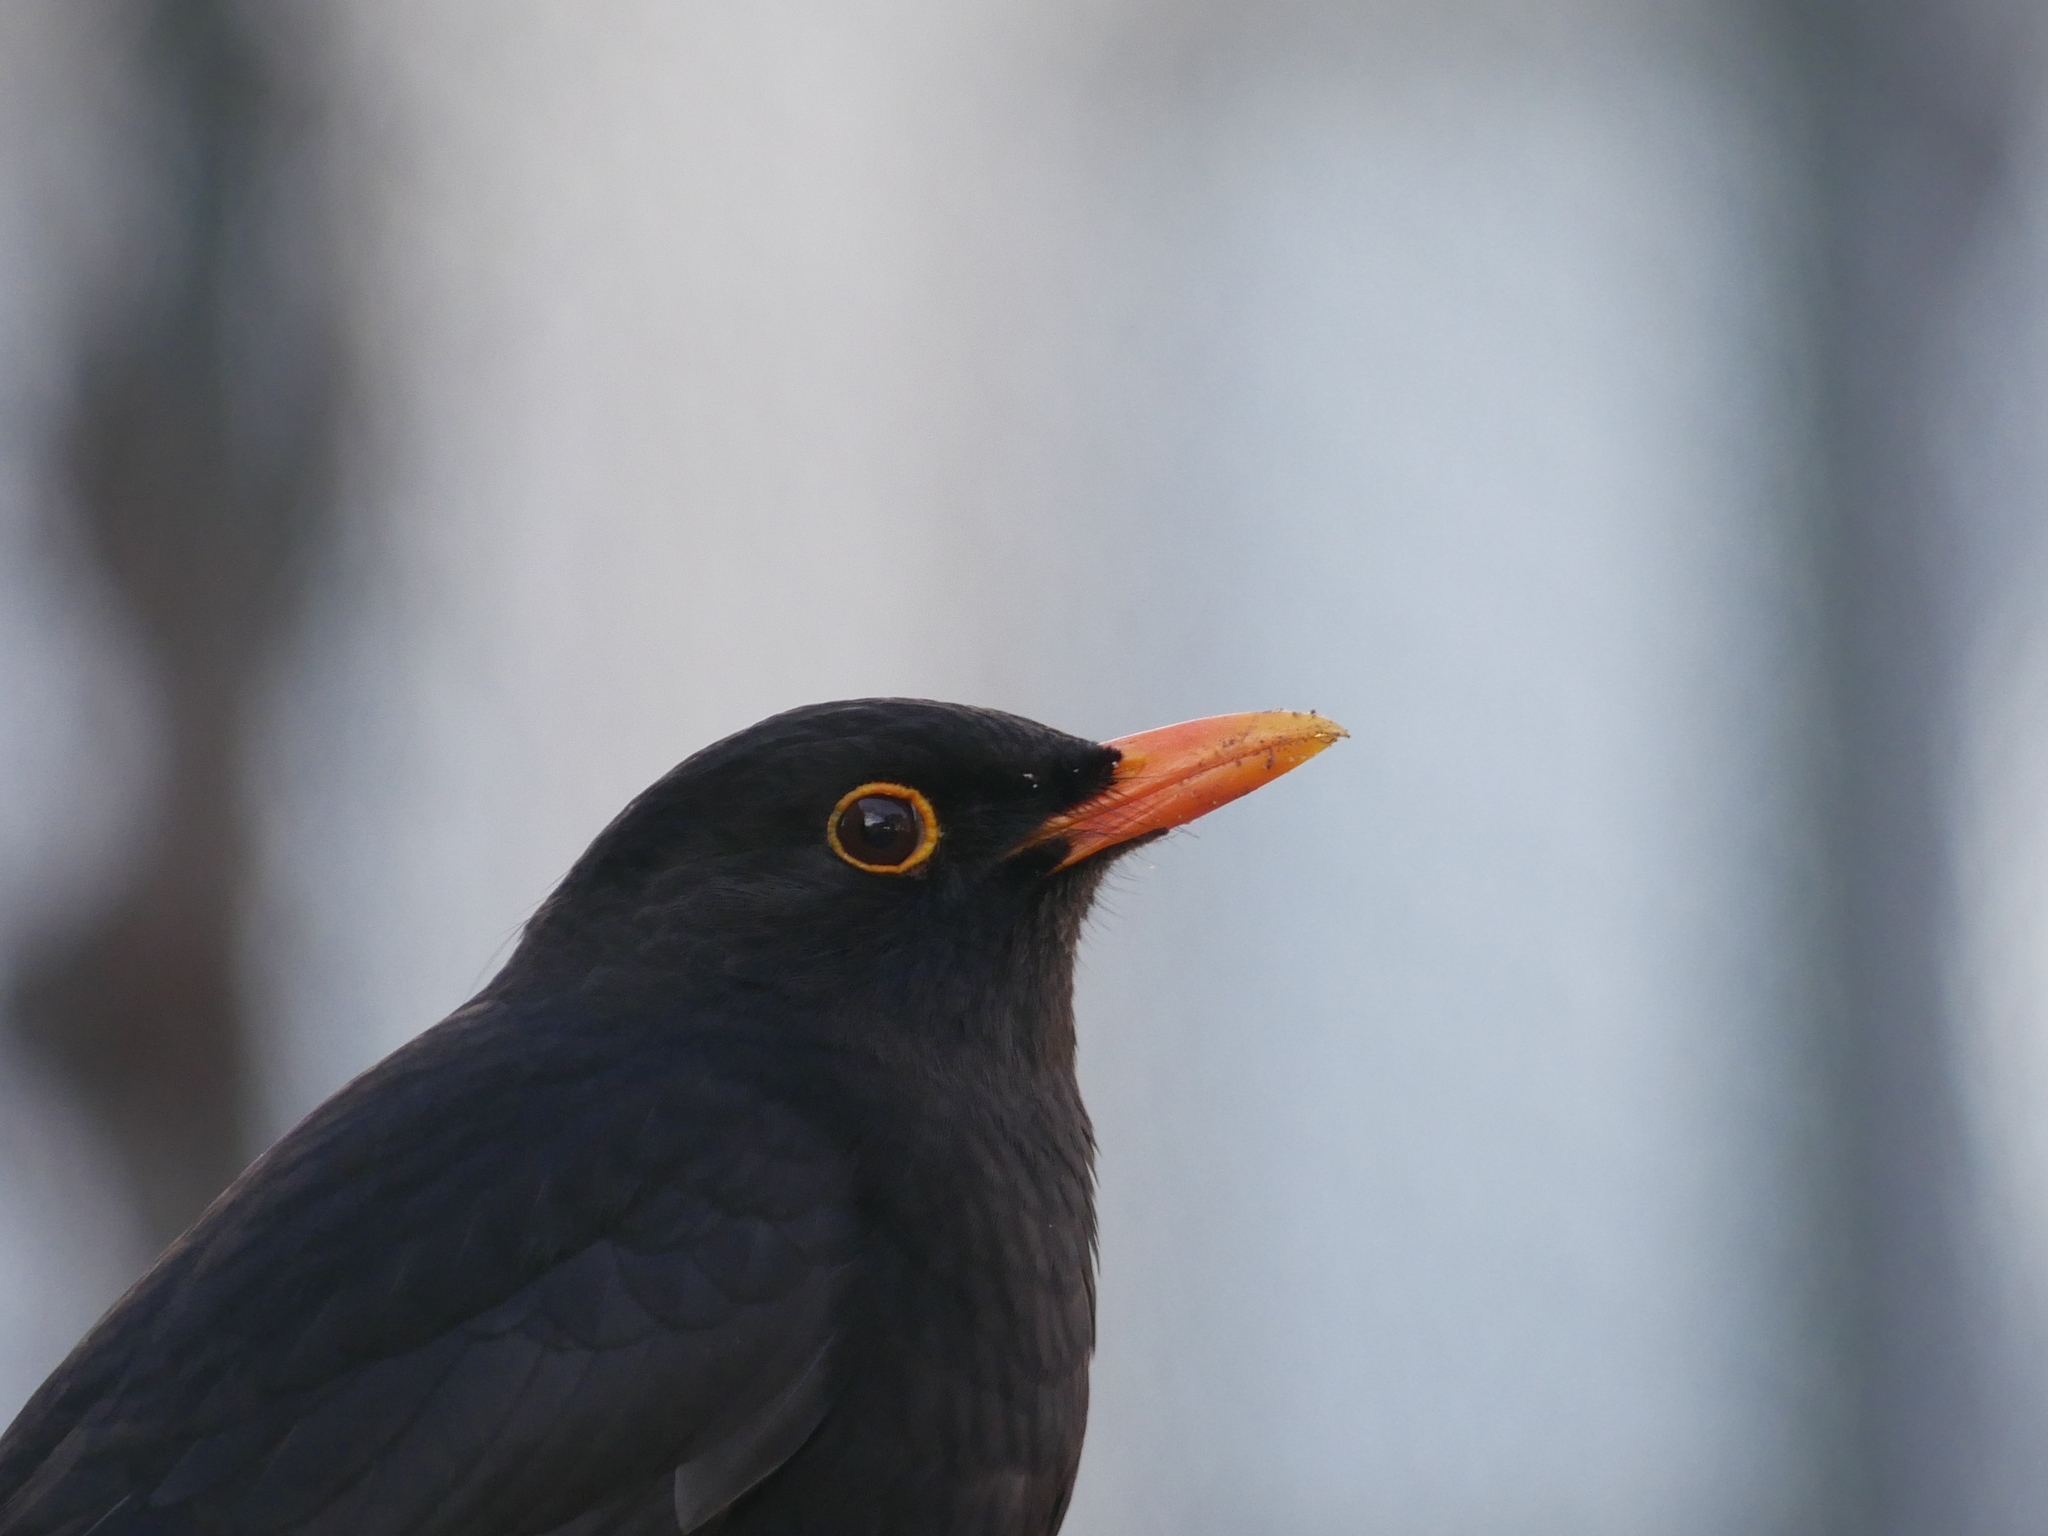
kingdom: Animalia
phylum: Chordata
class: Aves
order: Passeriformes
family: Turdidae
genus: Turdus
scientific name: Turdus merula
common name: Common blackbird
